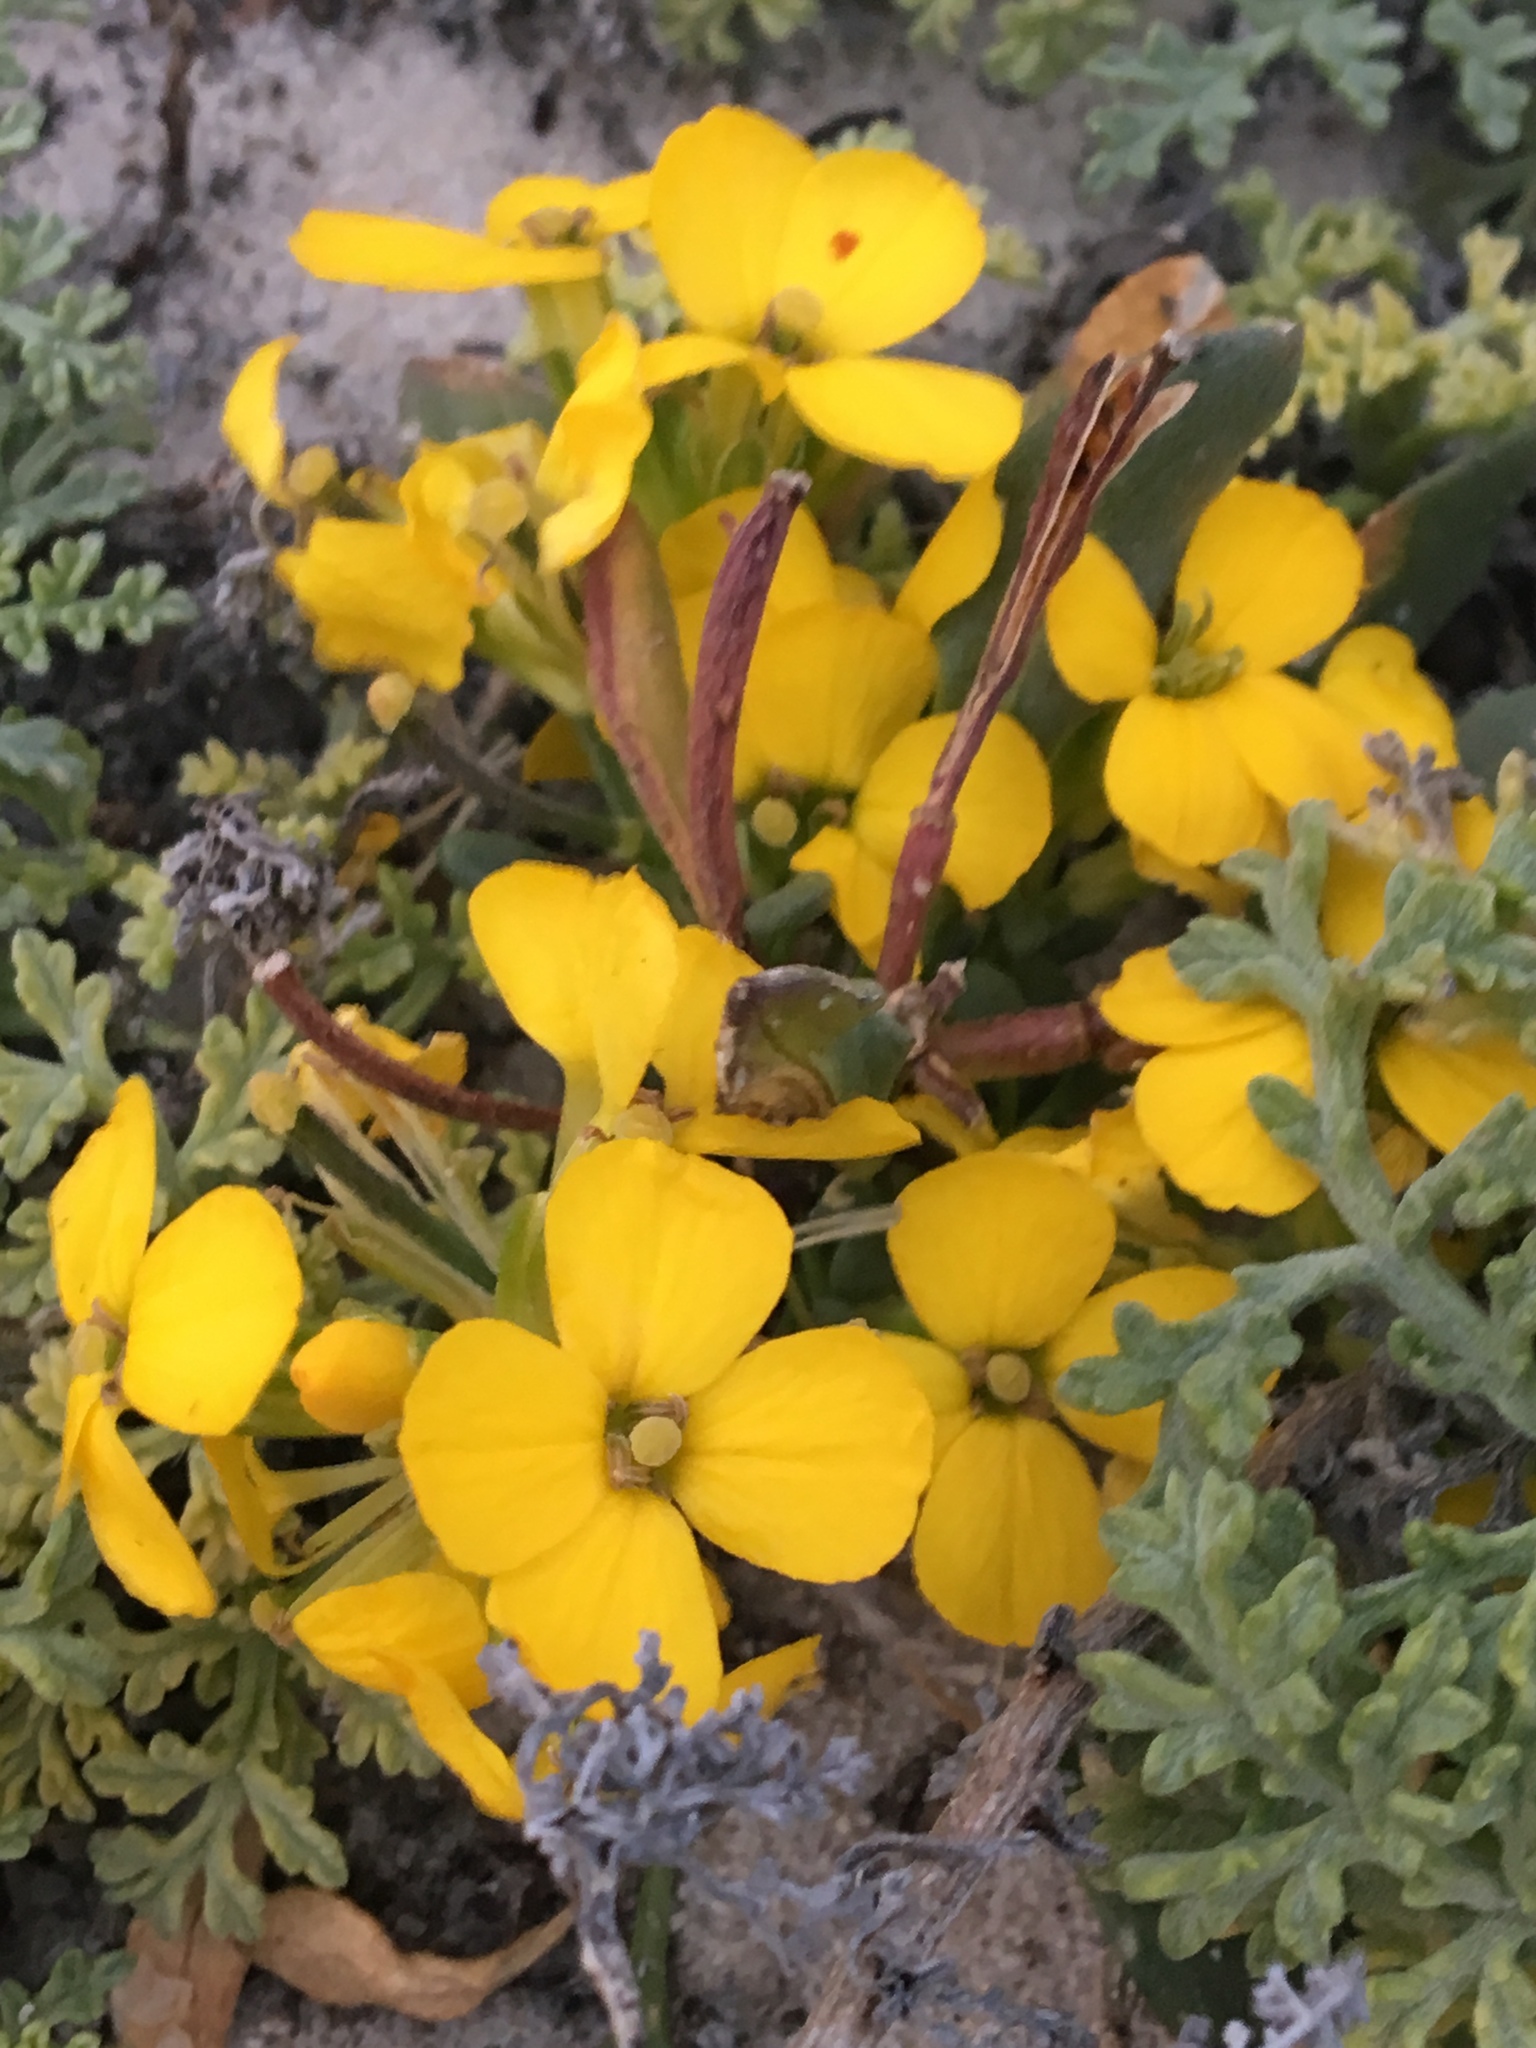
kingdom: Plantae
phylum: Tracheophyta
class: Magnoliopsida
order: Brassicales
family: Brassicaceae
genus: Erysimum
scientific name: Erysimum menziesii
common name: Menzies's wallflower
